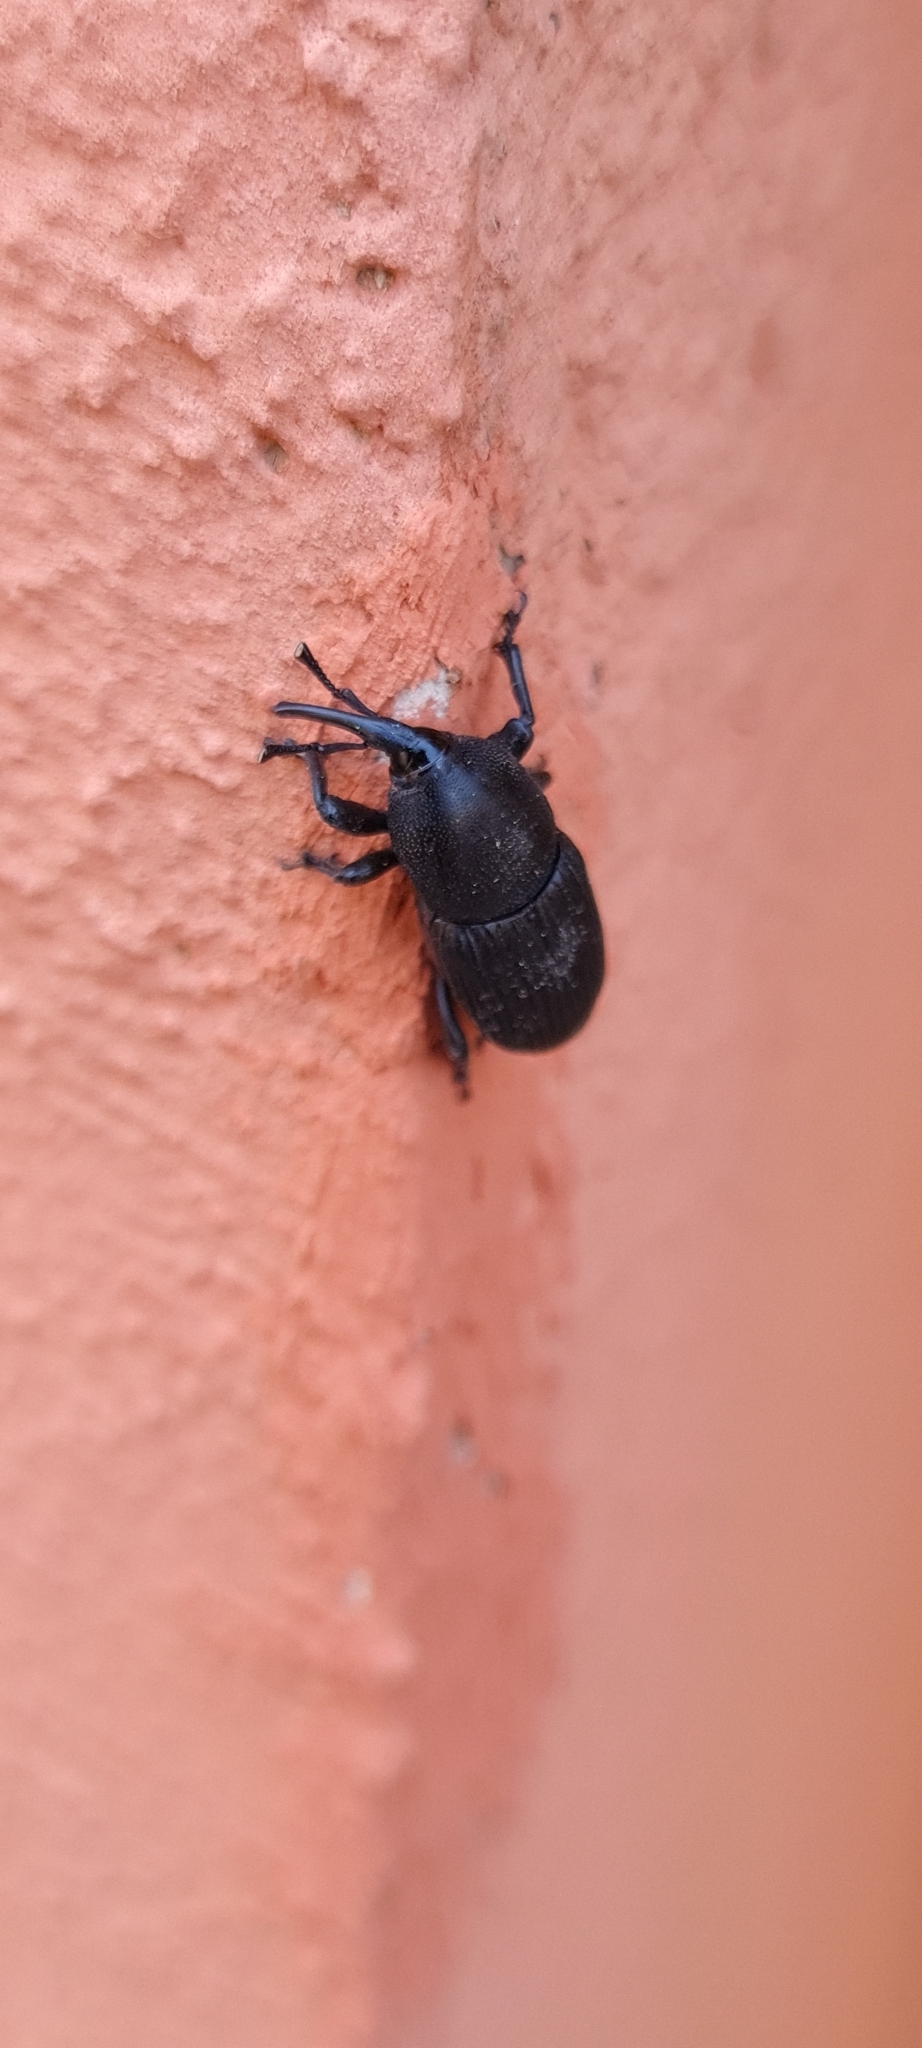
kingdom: Animalia
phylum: Arthropoda
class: Insecta
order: Coleoptera
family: Dryophthoridae
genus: Scyphophorus
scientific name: Scyphophorus acupunctatus
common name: Weevil
